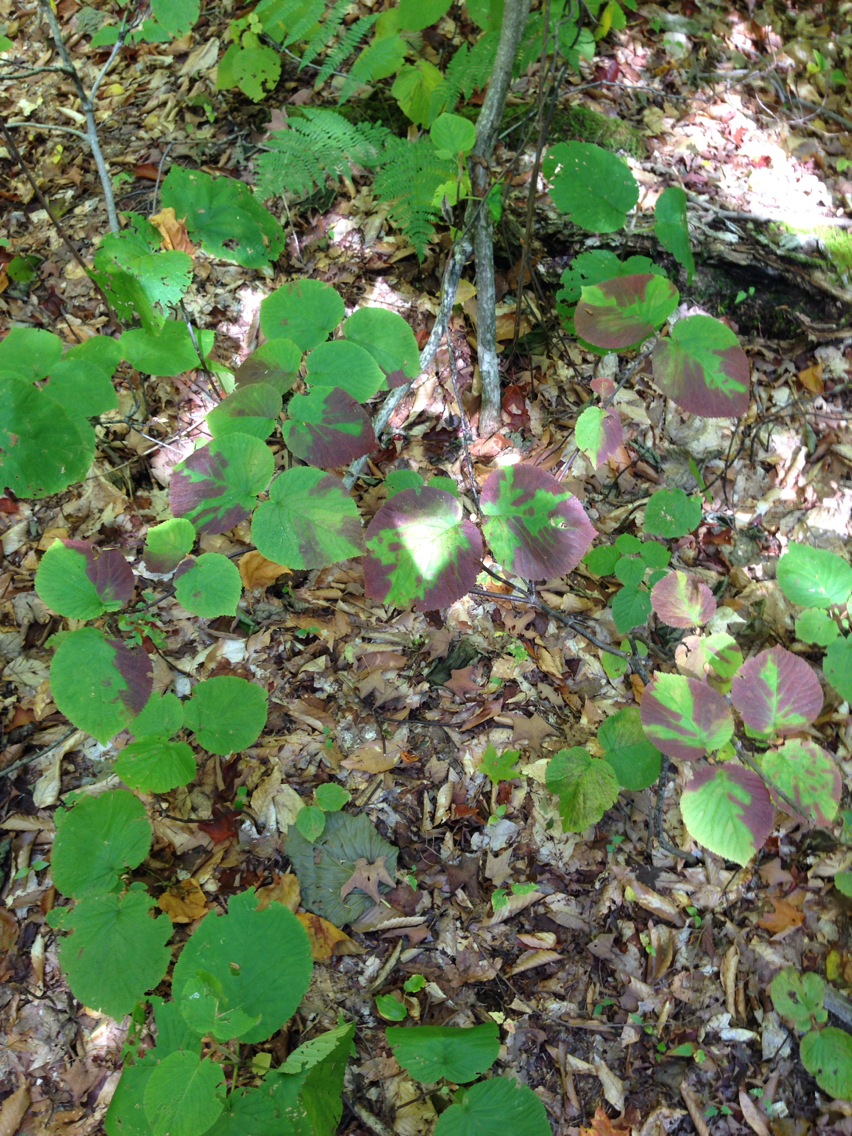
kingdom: Plantae
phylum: Tracheophyta
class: Magnoliopsida
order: Dipsacales
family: Viburnaceae
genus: Viburnum
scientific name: Viburnum lantanoides
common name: Hobblebush
